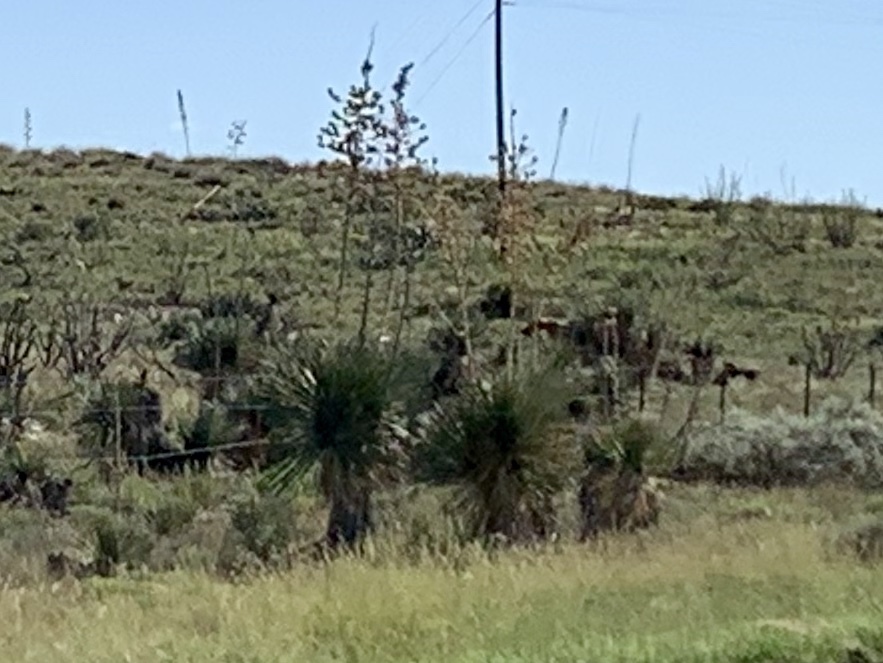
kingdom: Plantae
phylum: Tracheophyta
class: Liliopsida
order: Asparagales
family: Asparagaceae
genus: Yucca
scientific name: Yucca elata
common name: Palmella
